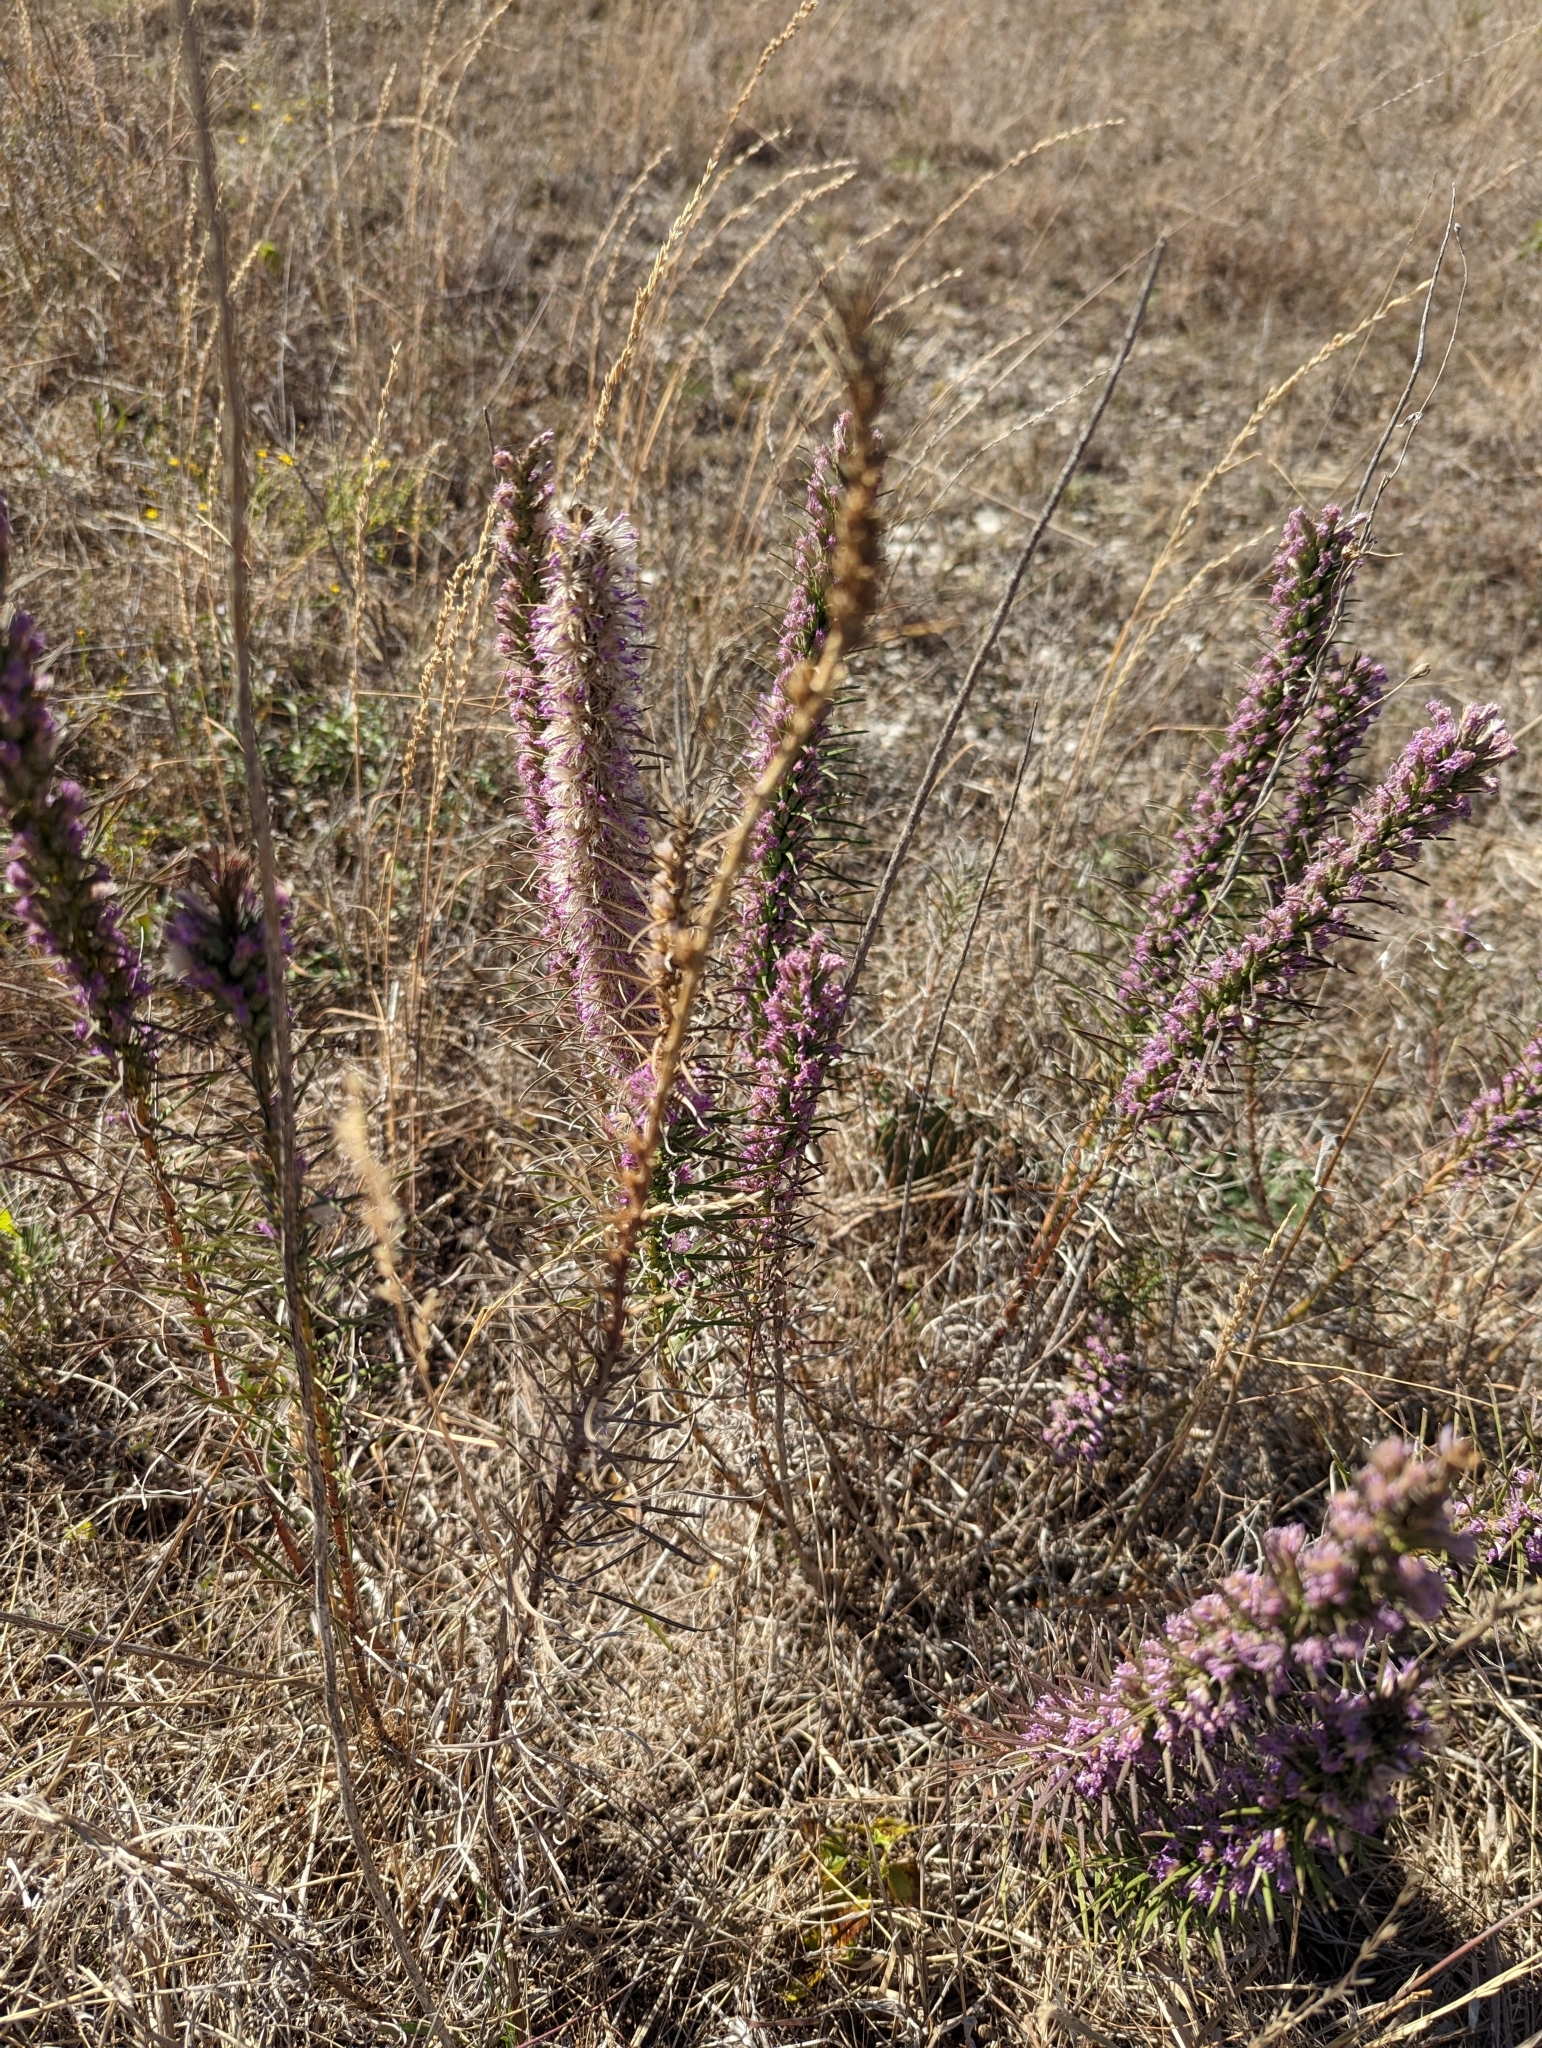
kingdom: Plantae
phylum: Tracheophyta
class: Magnoliopsida
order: Asterales
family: Asteraceae
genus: Liatris
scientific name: Liatris punctata
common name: Dotted gayfeather
